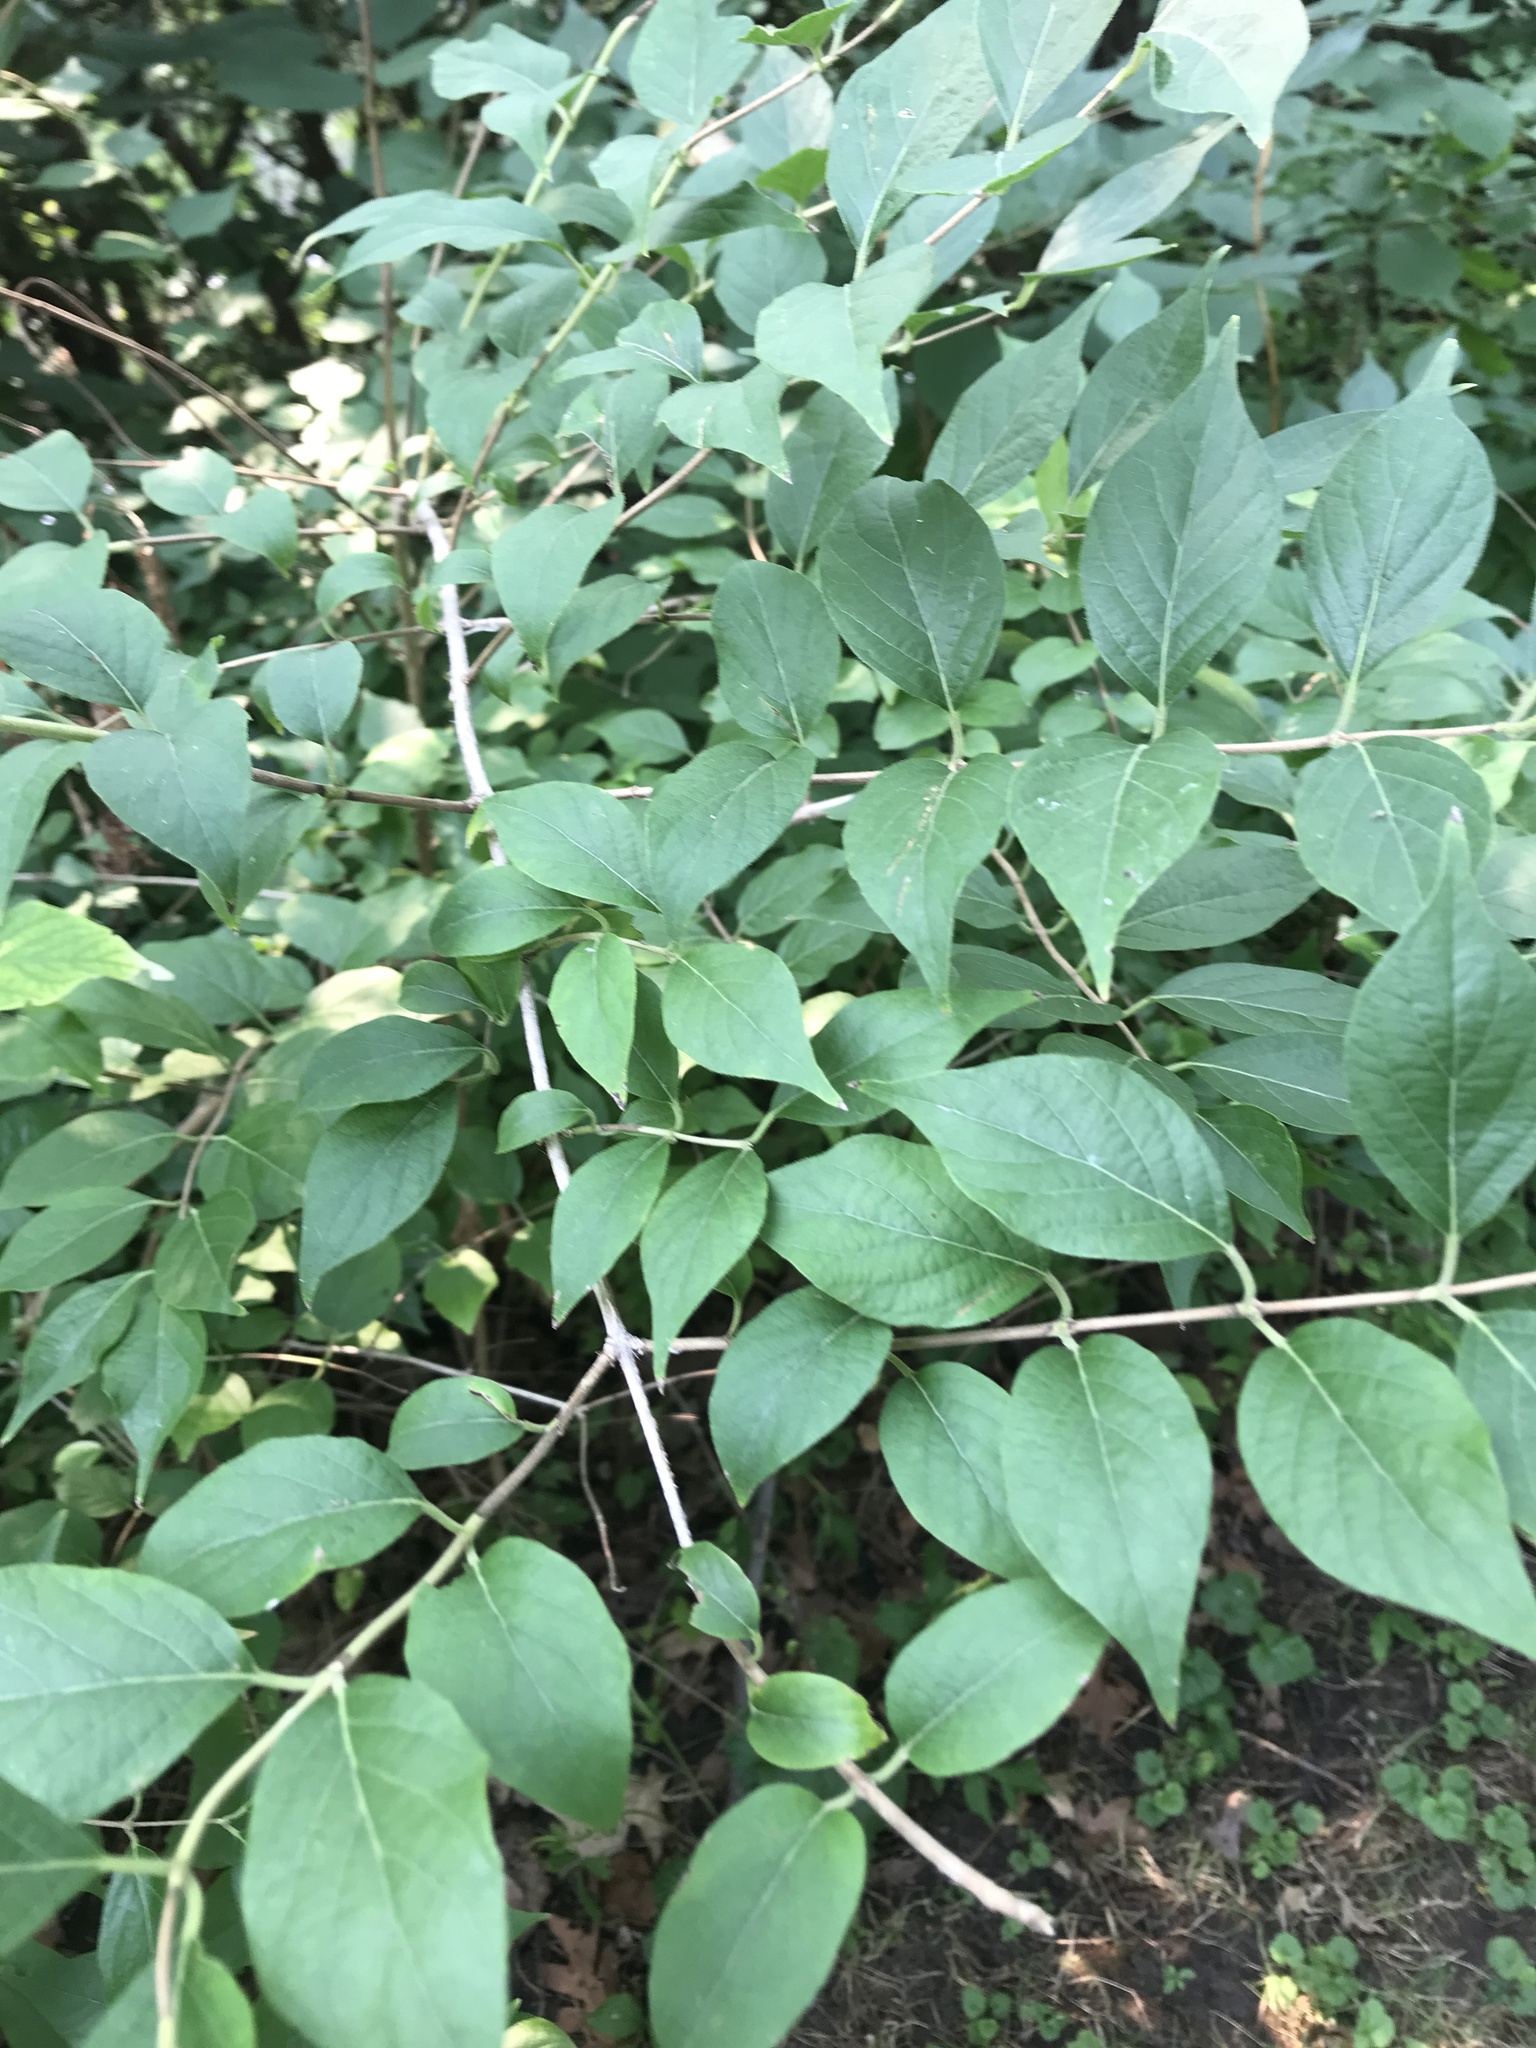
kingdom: Plantae
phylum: Tracheophyta
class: Magnoliopsida
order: Dipsacales
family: Caprifoliaceae
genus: Lonicera
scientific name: Lonicera maackii
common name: Amur honeysuckle
